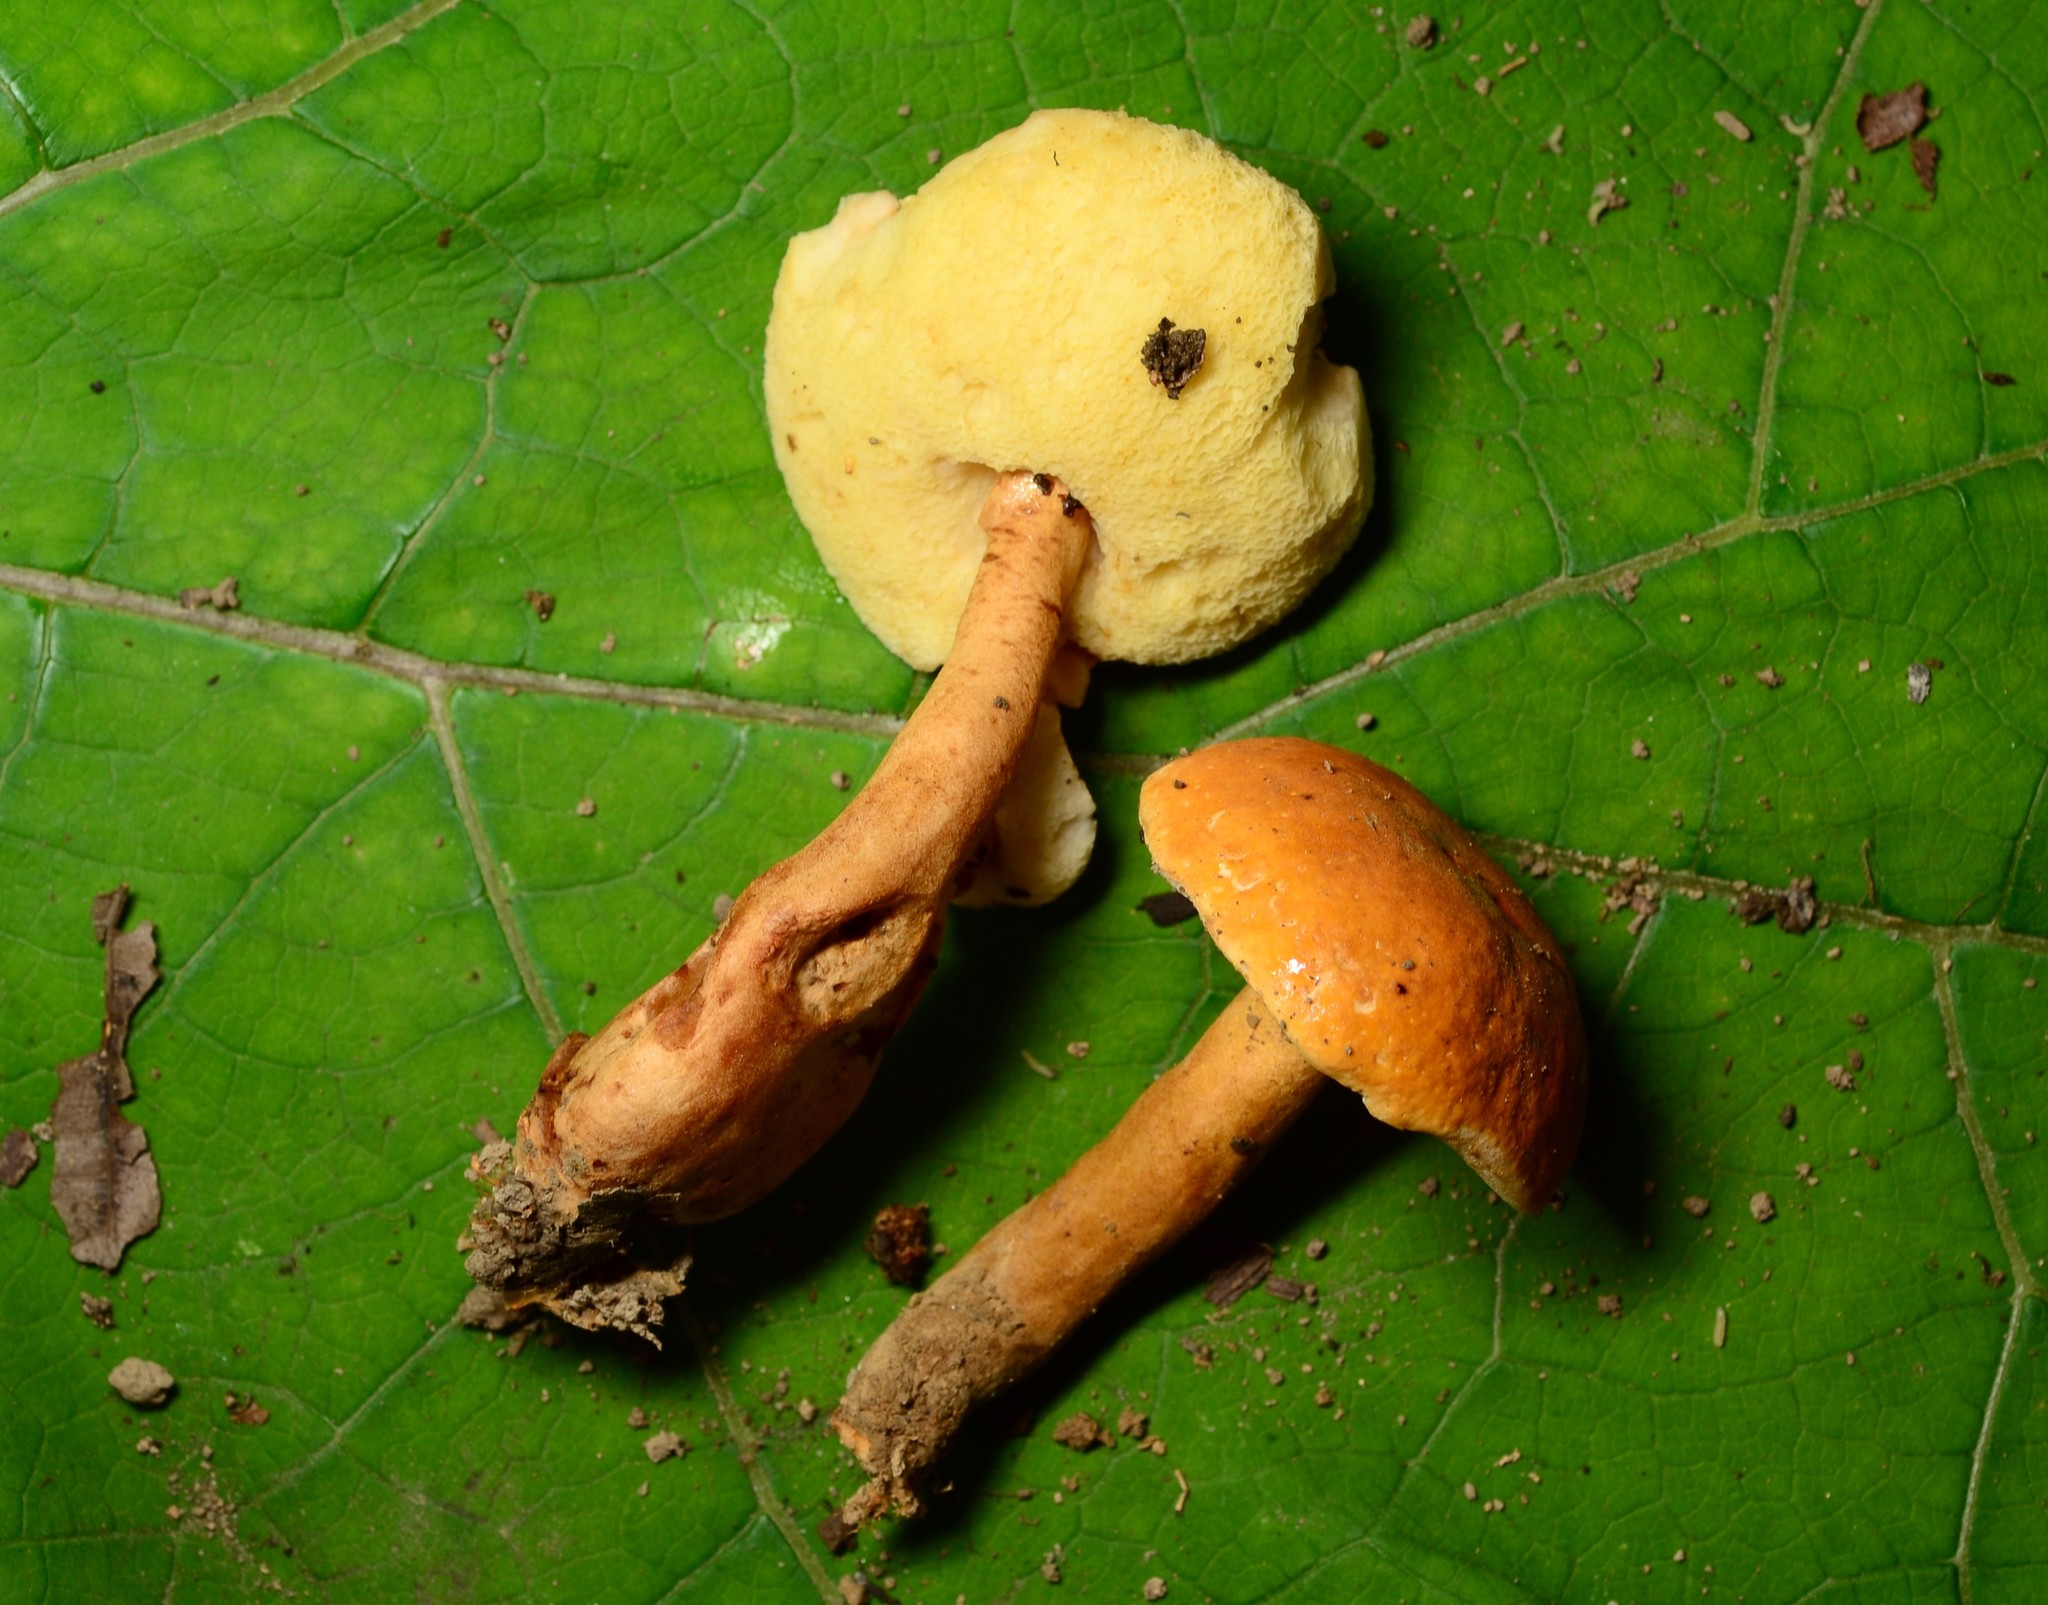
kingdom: Fungi
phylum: Basidiomycota
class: Agaricomycetes
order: Boletales
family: Gyroporaceae
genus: Gyroporus
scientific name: Gyroporus castaneus
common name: Chestnut bolete
